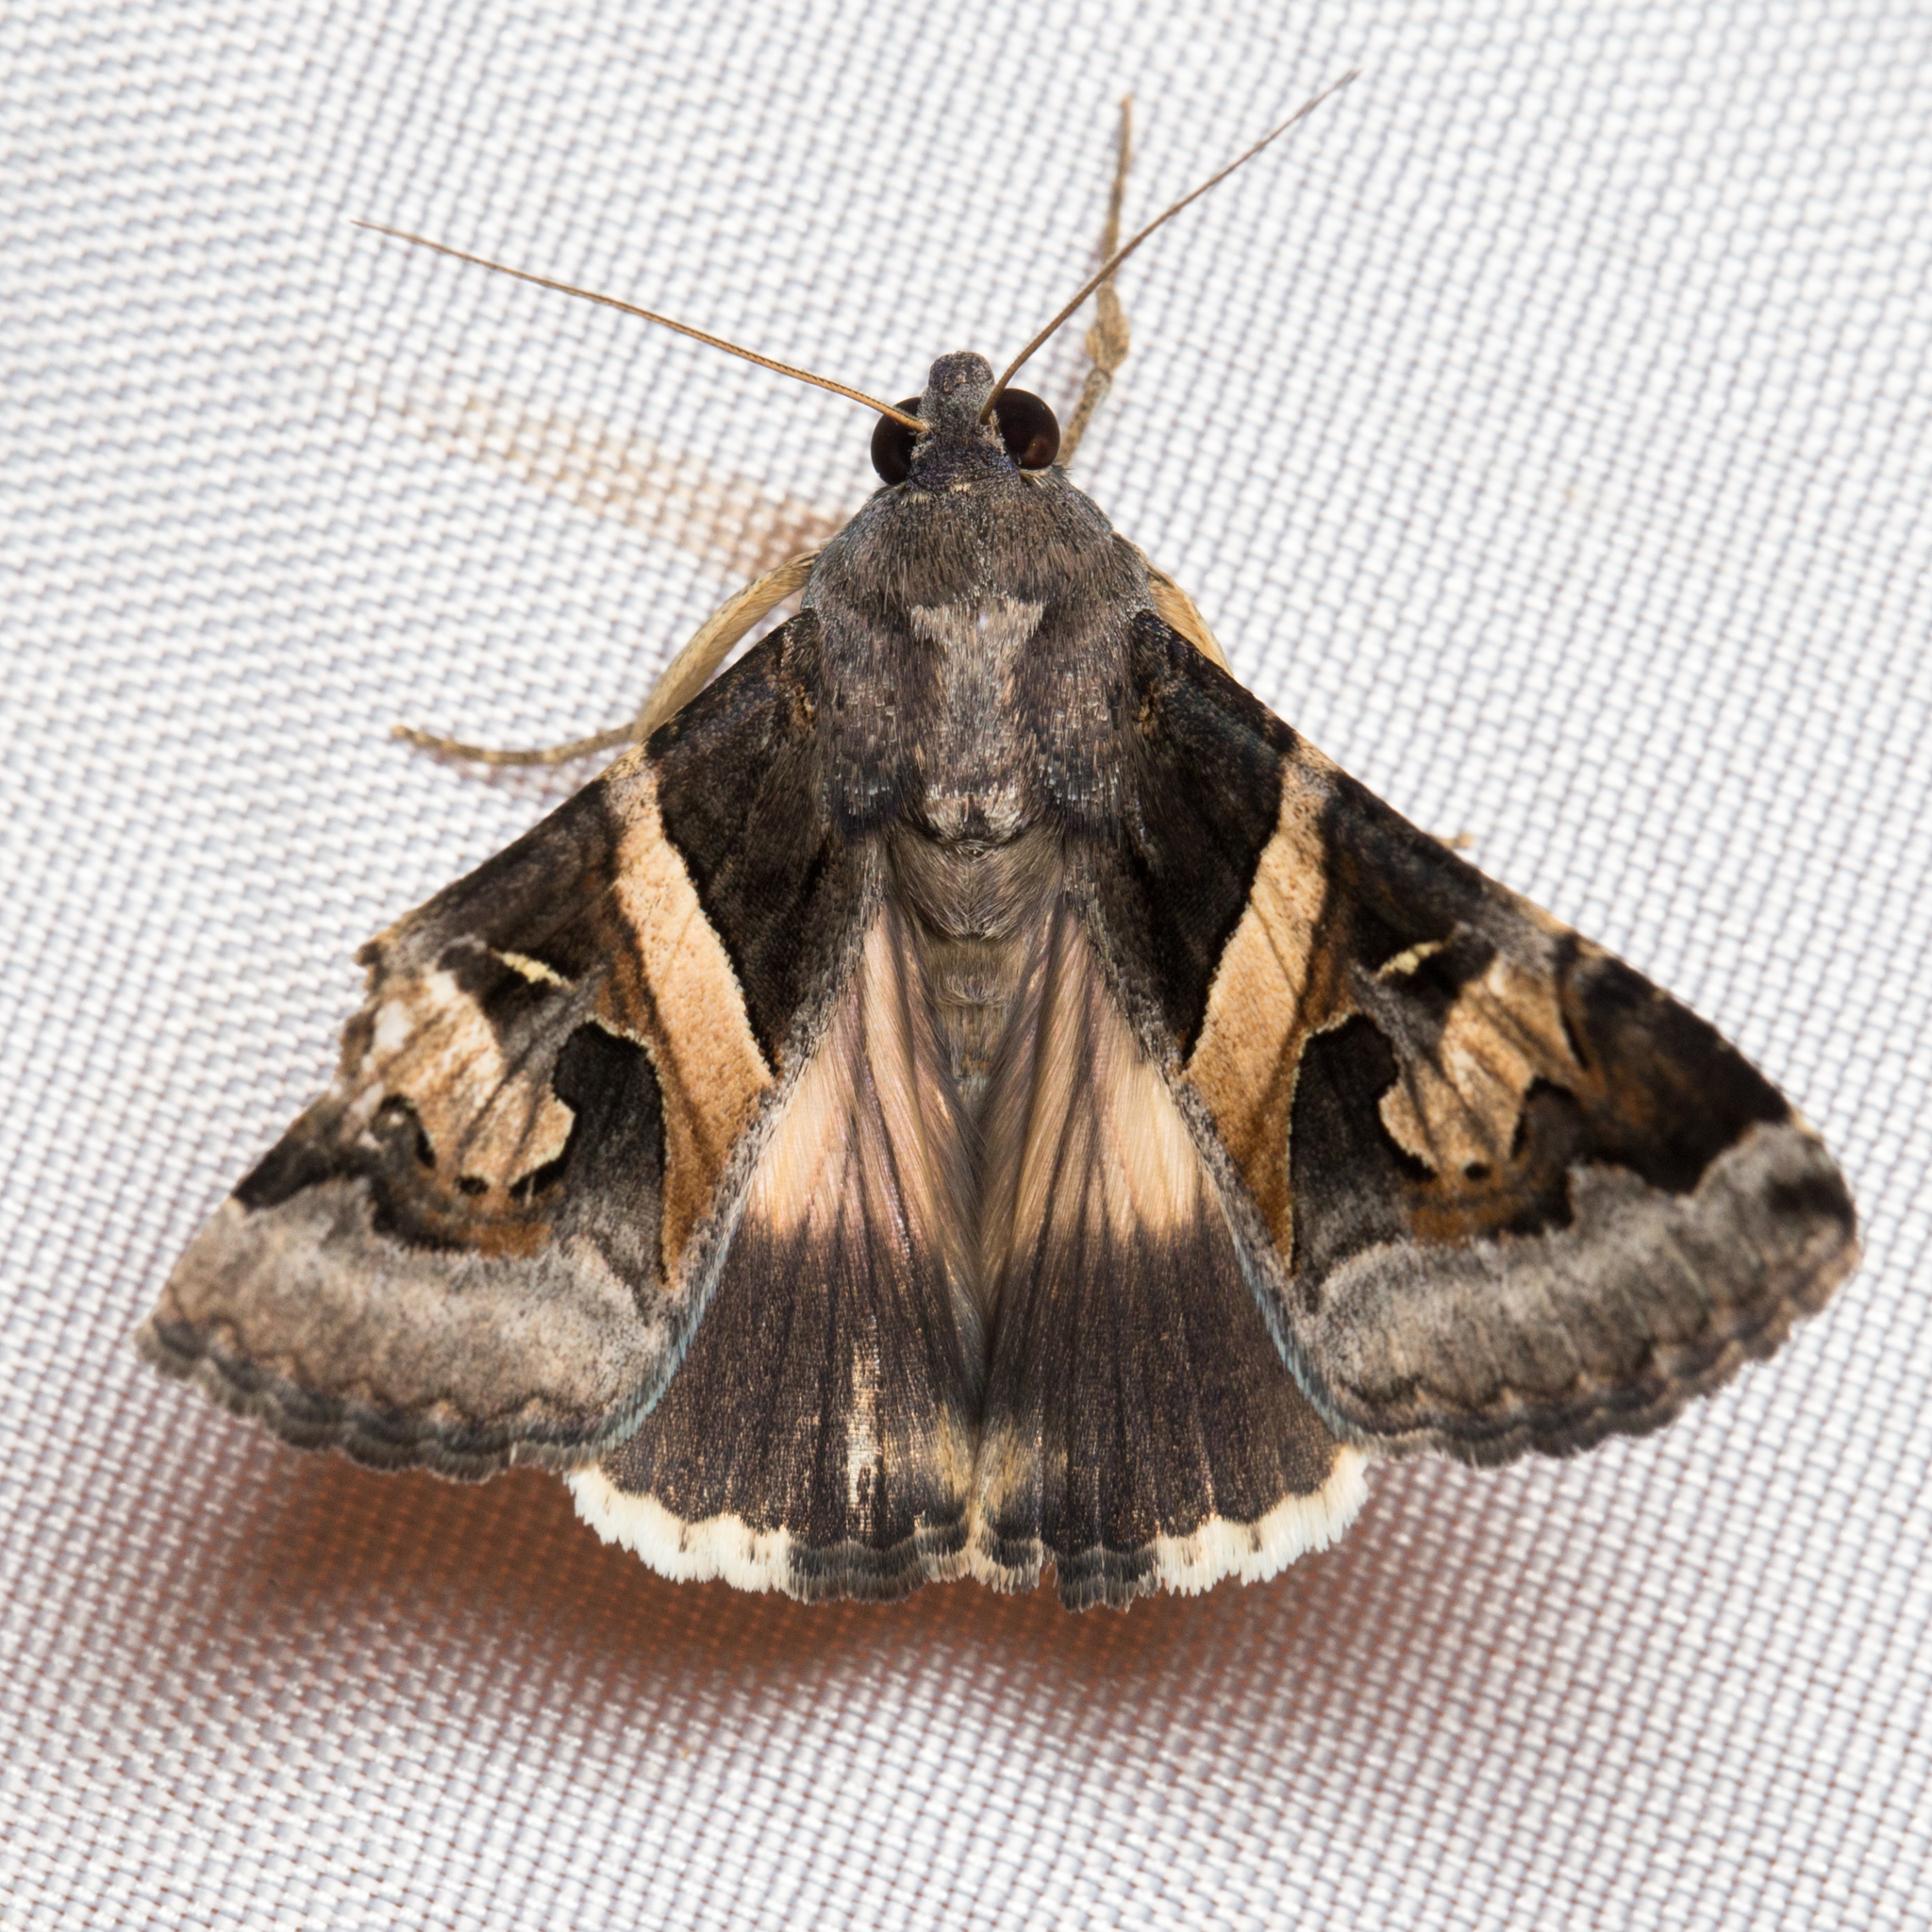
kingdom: Animalia
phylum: Arthropoda
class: Insecta
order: Lepidoptera
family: Erebidae
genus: Melipotis
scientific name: Melipotis indomita
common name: Moth
